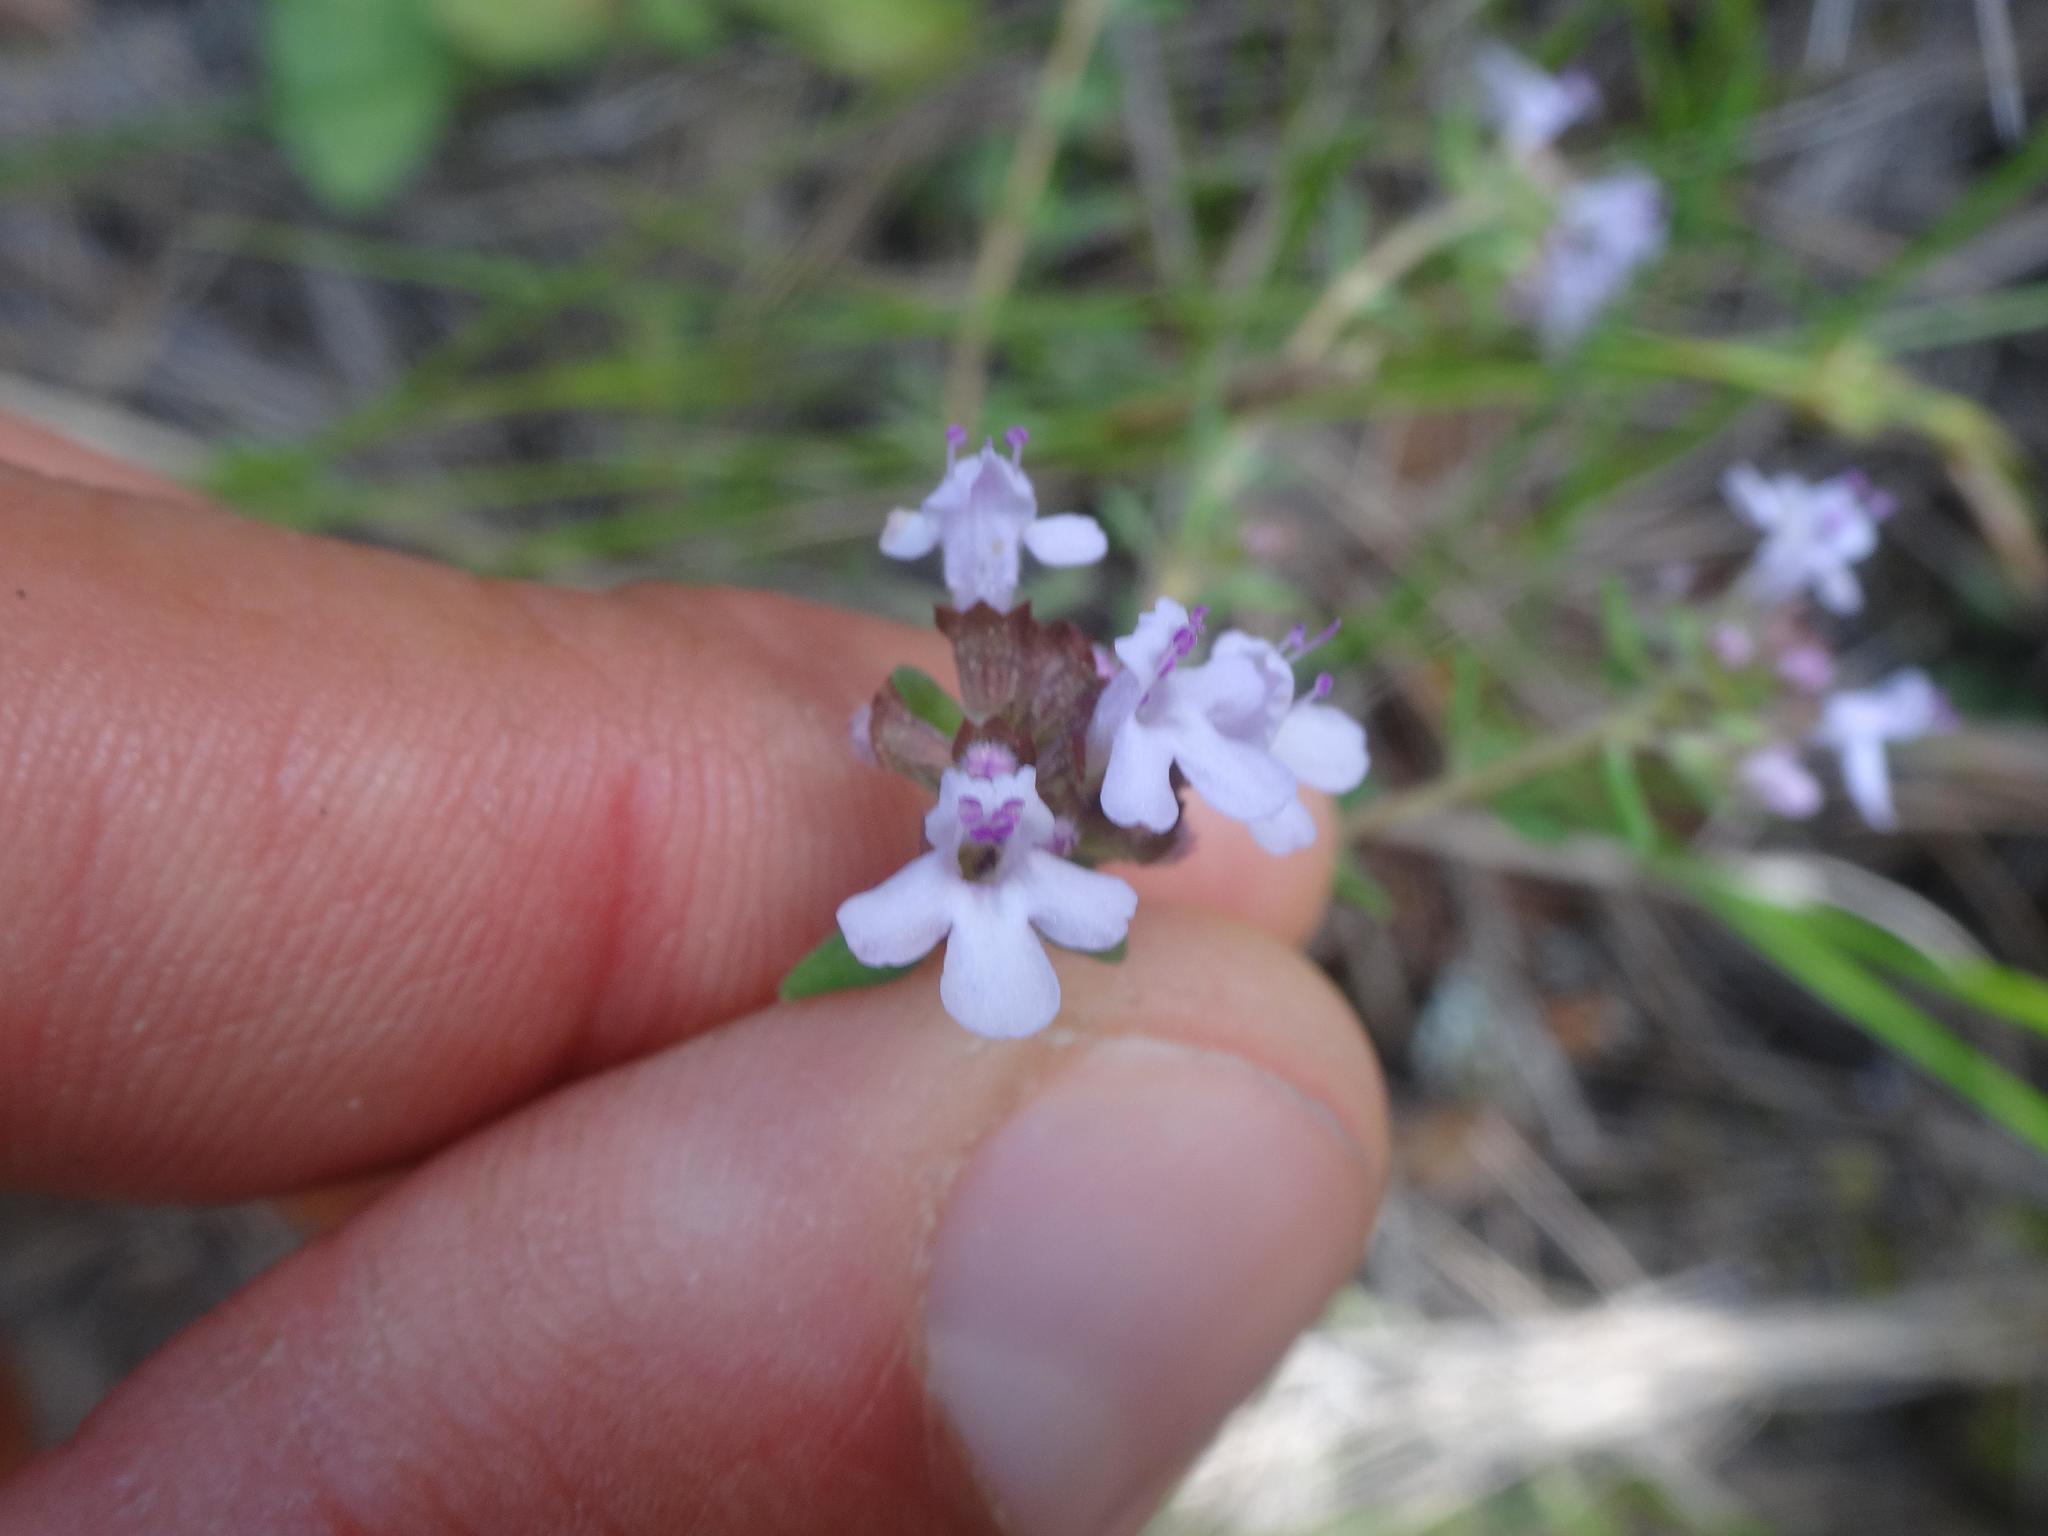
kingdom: Plantae
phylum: Tracheophyta
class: Magnoliopsida
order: Lamiales
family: Lamiaceae
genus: Thymus
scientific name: Thymus vulgaris
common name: Garden thyme
